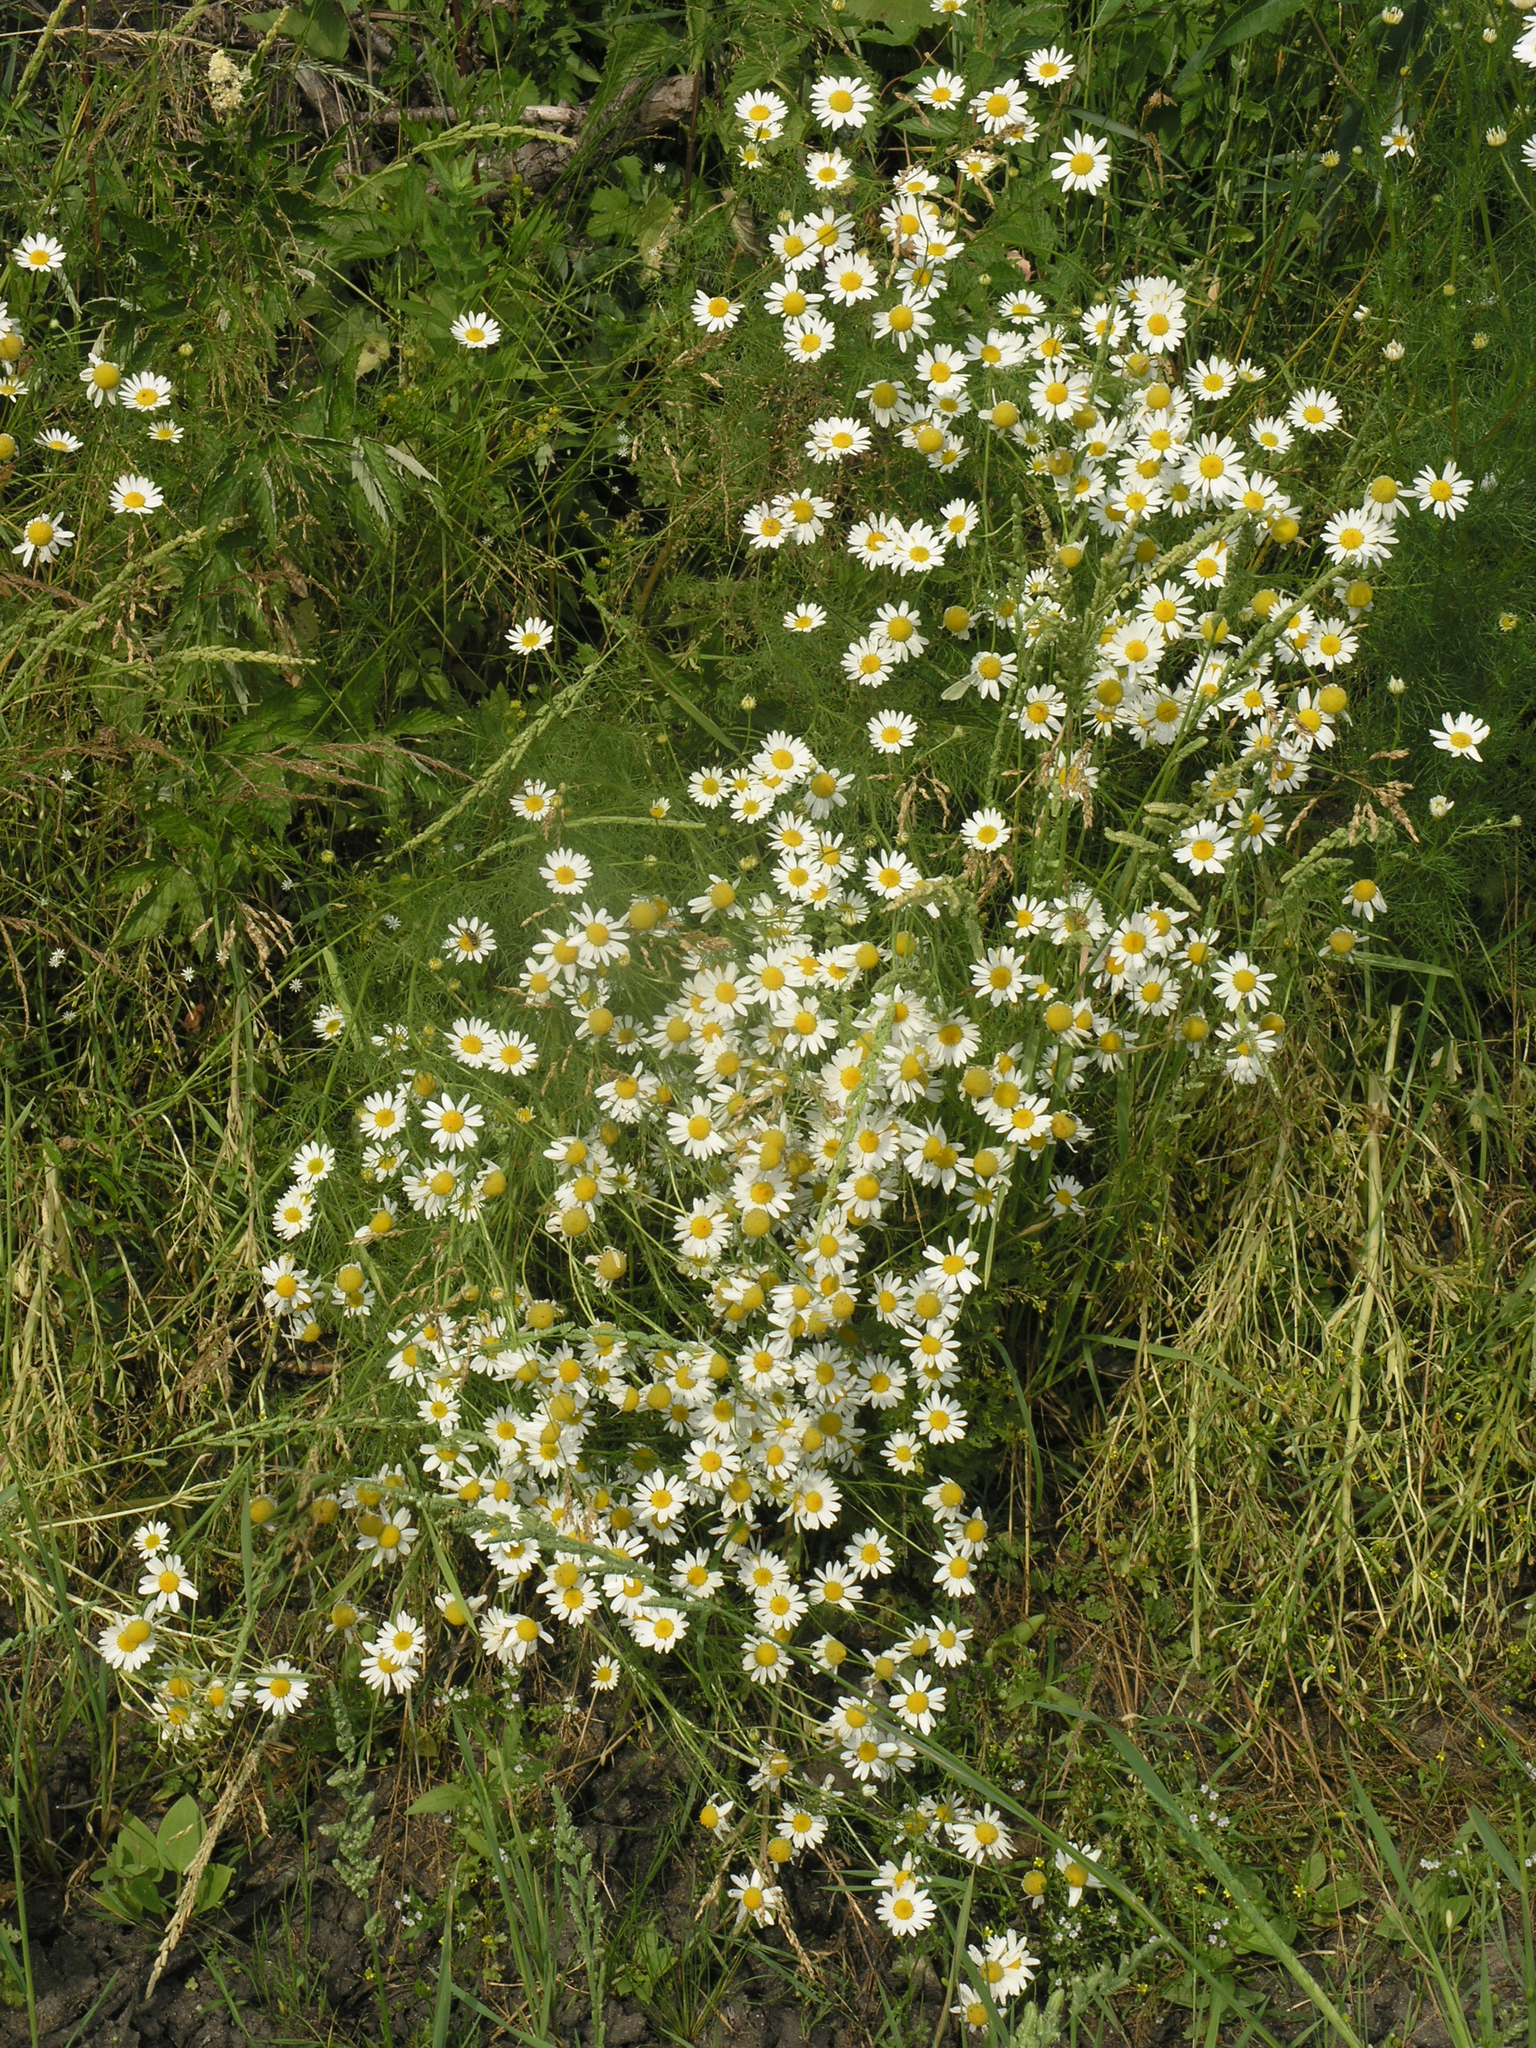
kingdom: Plantae
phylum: Tracheophyta
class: Magnoliopsida
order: Asterales
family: Asteraceae
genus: Tripleurospermum
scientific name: Tripleurospermum inodorum
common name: Scentless mayweed
